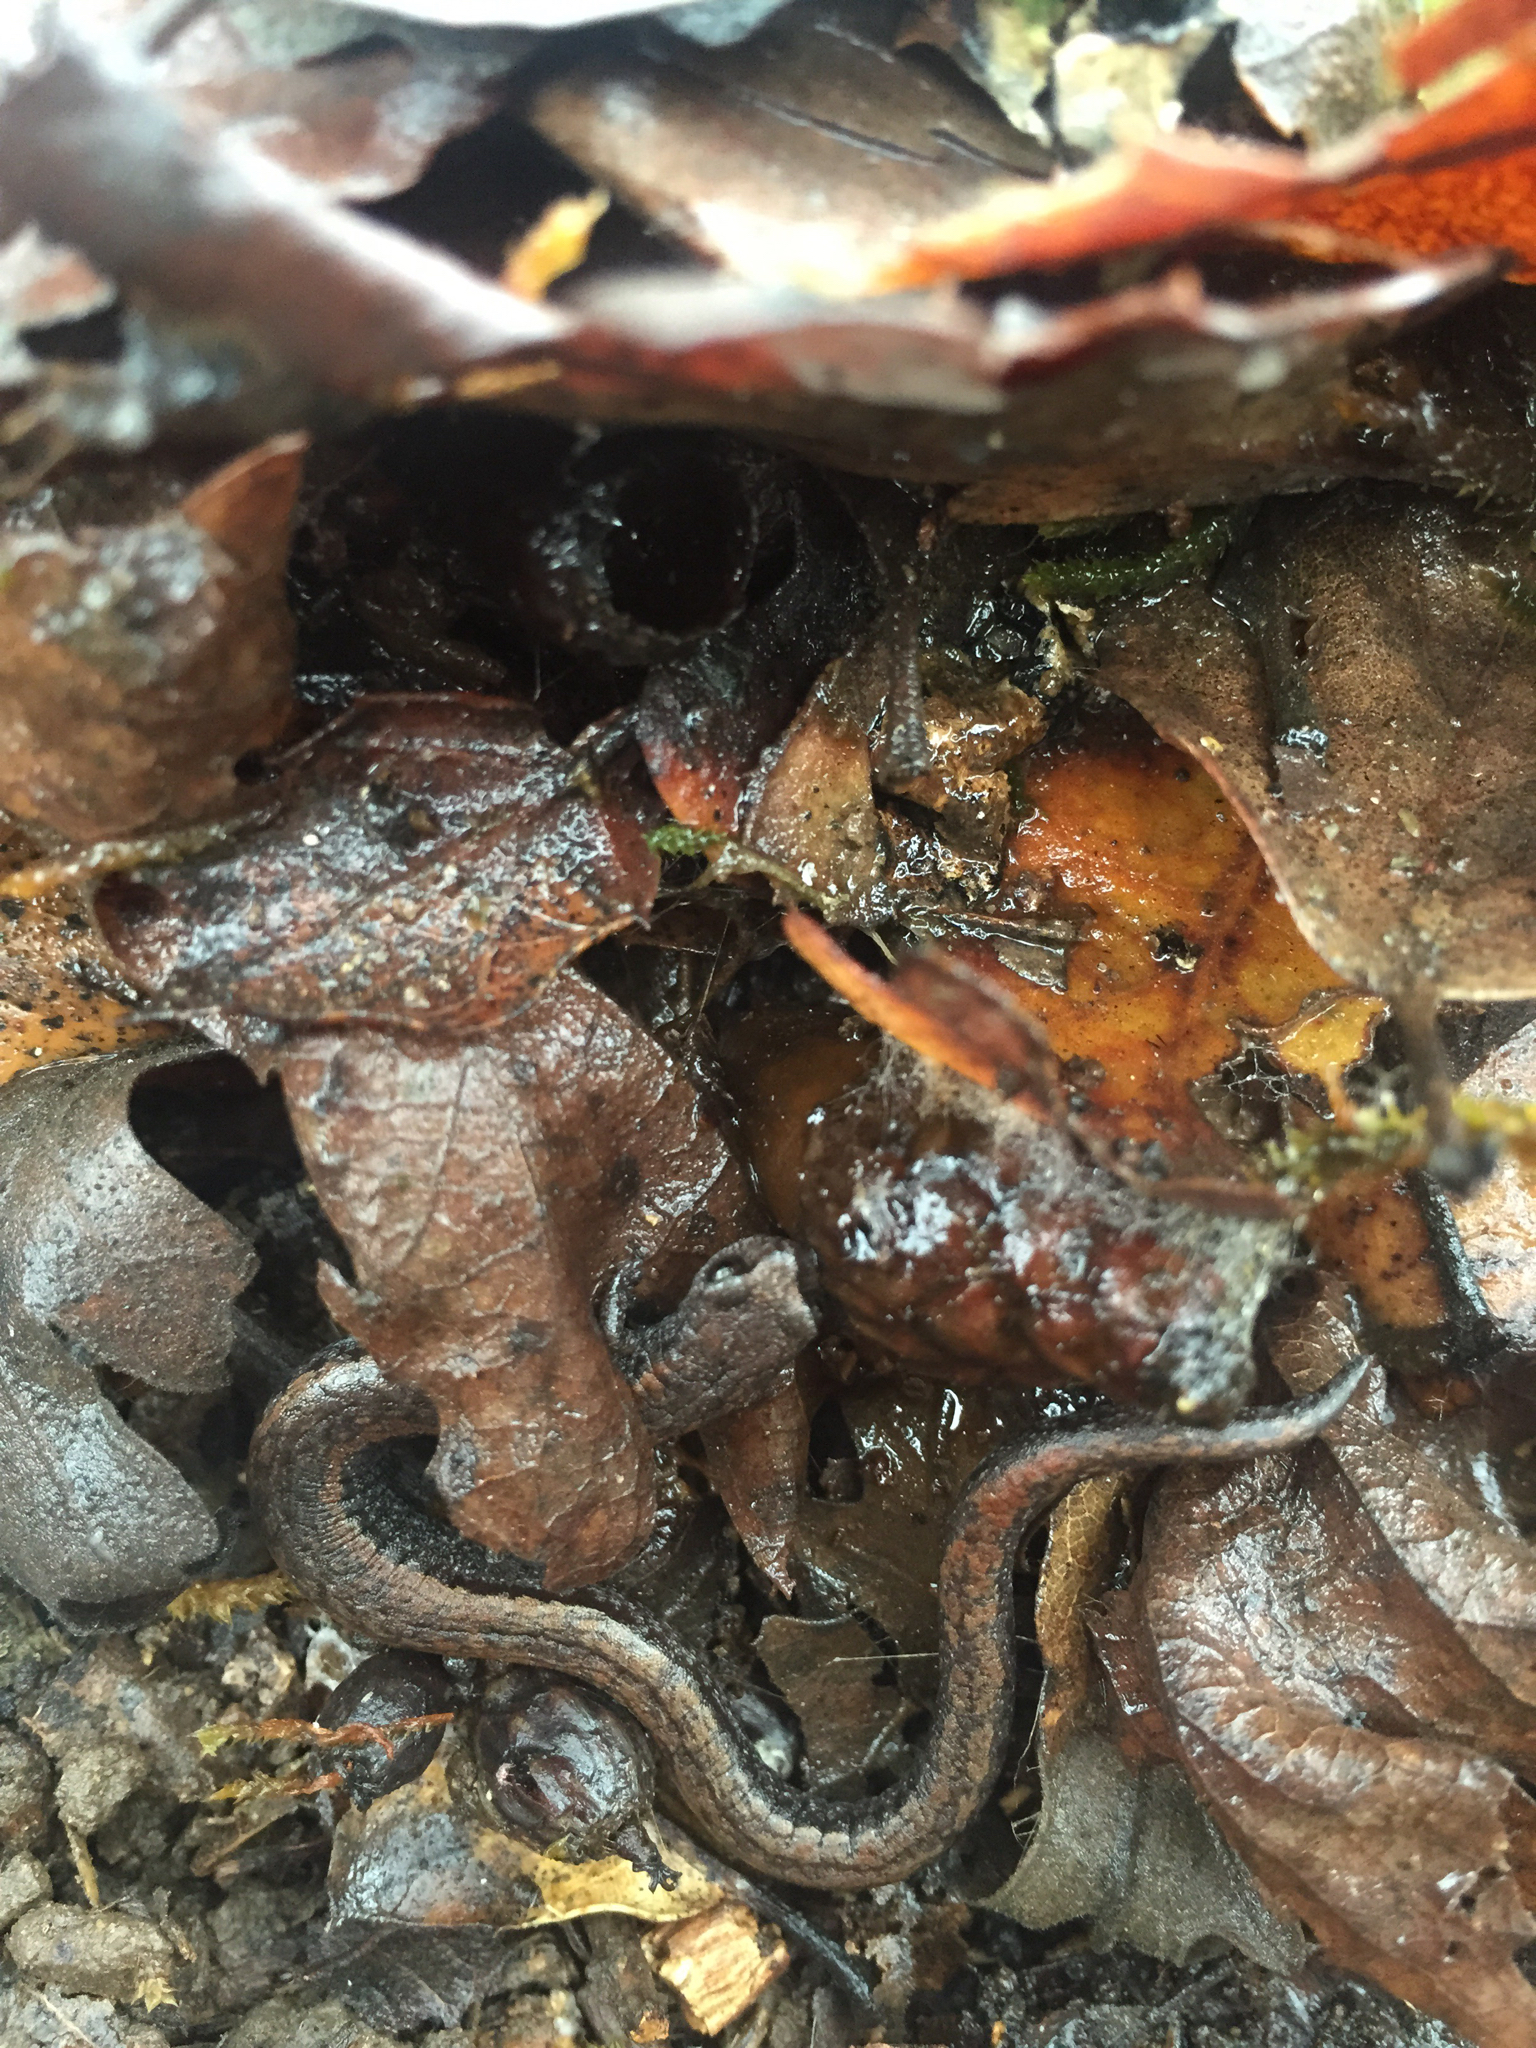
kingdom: Animalia
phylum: Chordata
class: Amphibia
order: Caudata
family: Plethodontidae
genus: Batrachoseps
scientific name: Batrachoseps attenuatus
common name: California slender salamander
